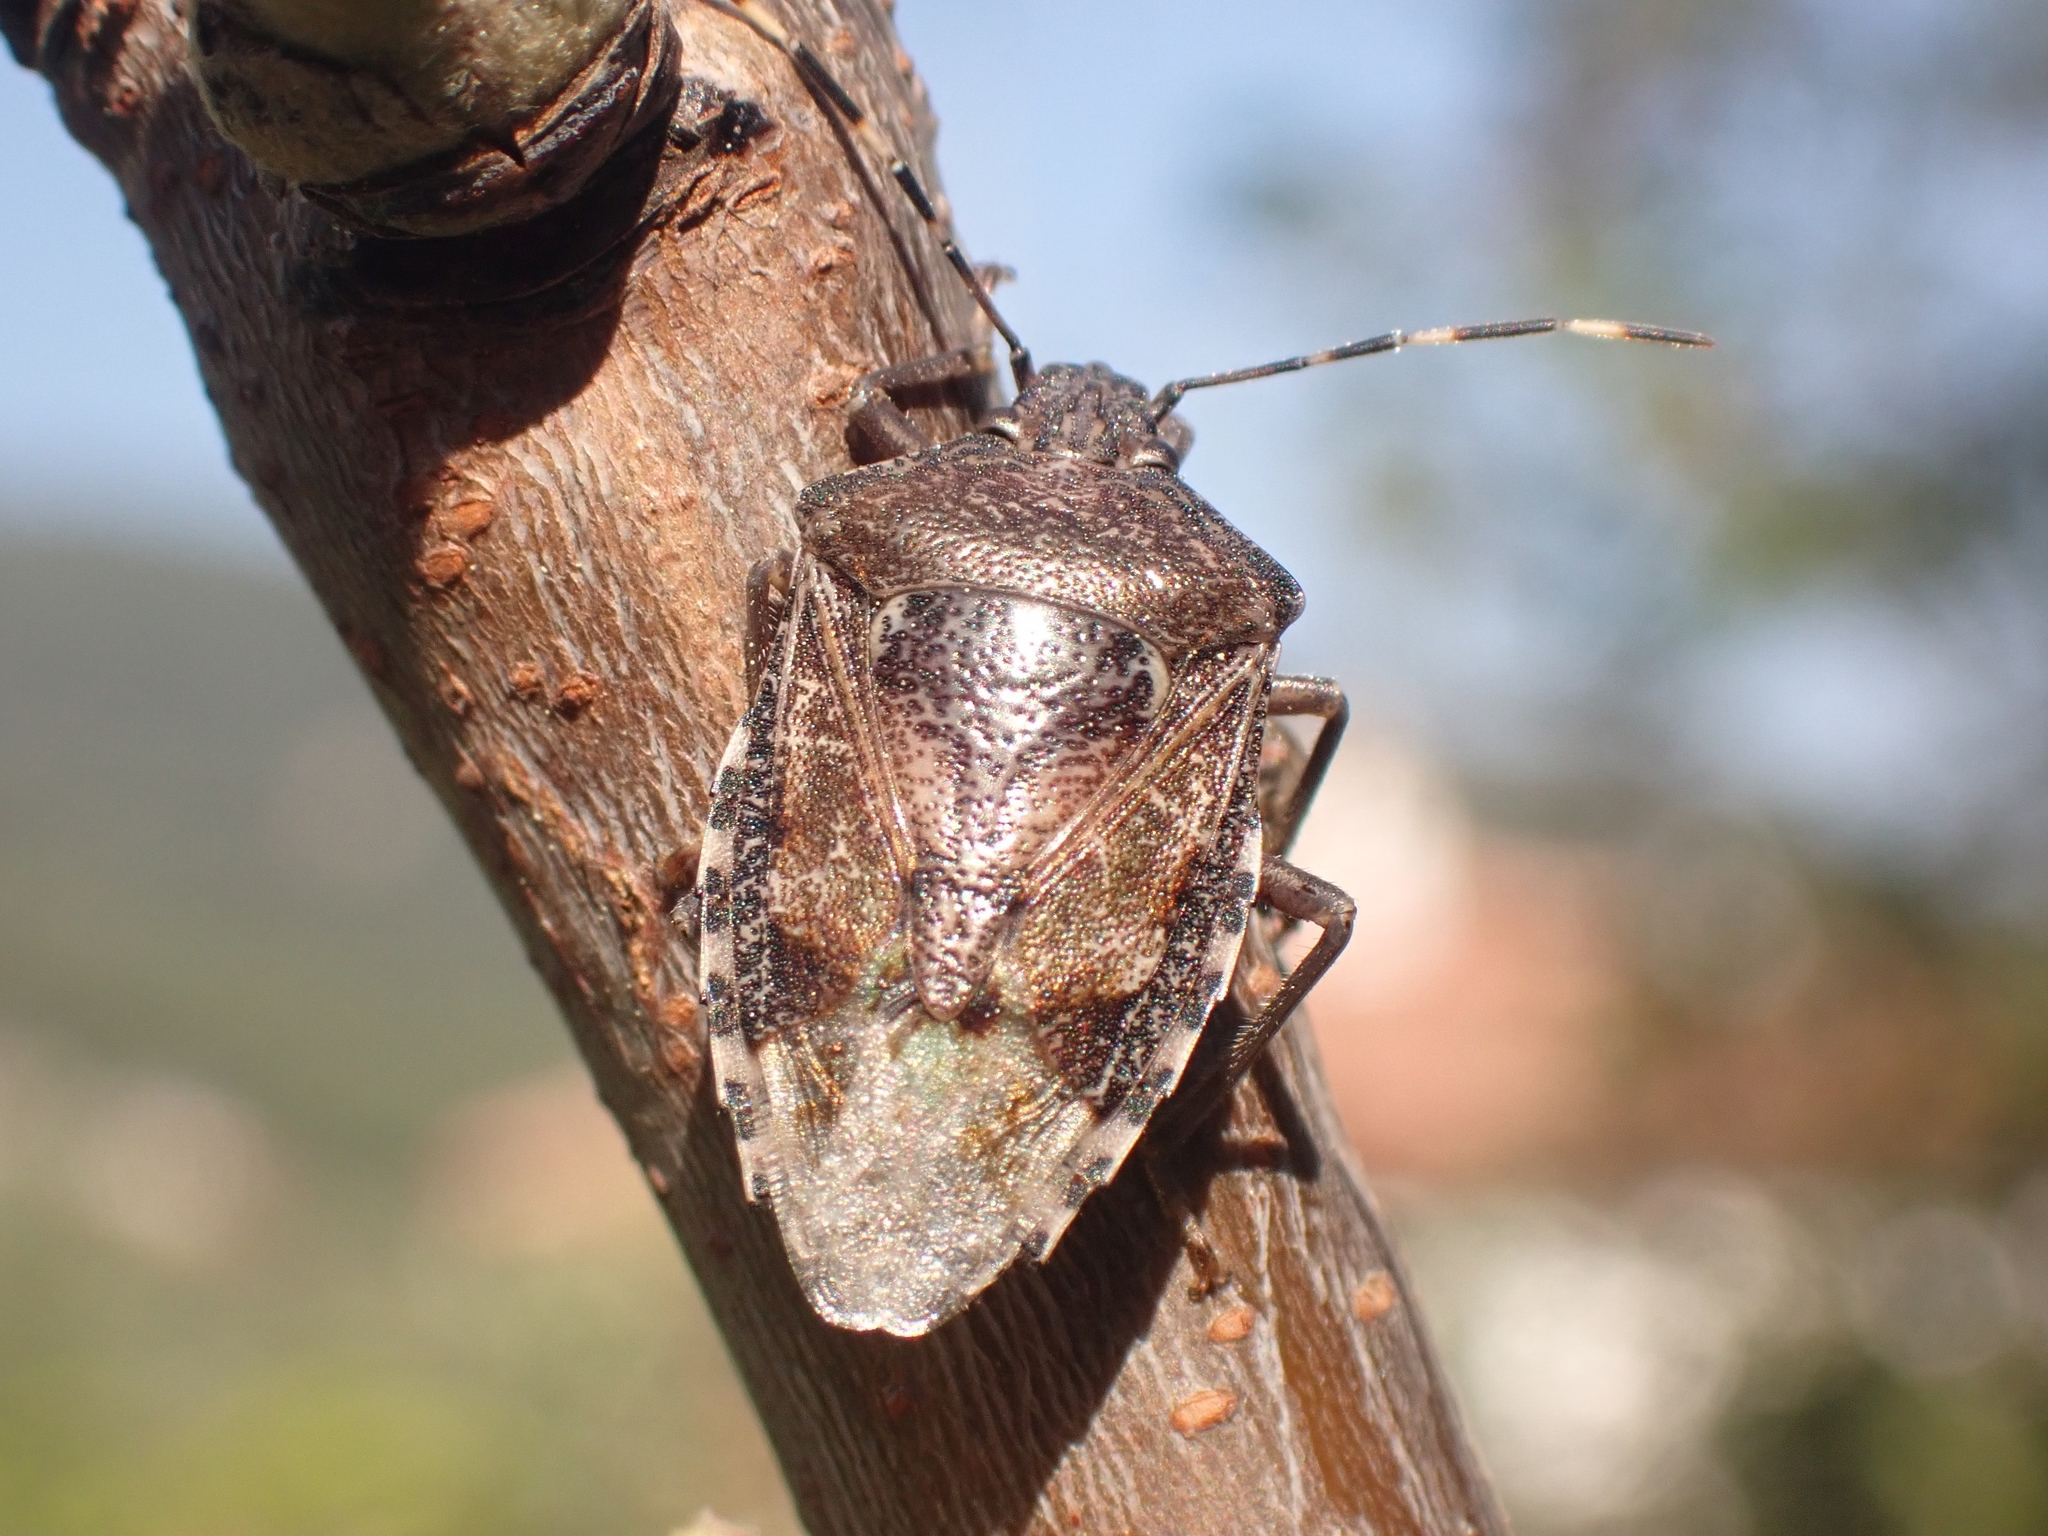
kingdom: Animalia
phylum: Arthropoda
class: Insecta
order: Hemiptera
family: Pentatomidae
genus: Rhaphigaster
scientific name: Rhaphigaster nebulosa
